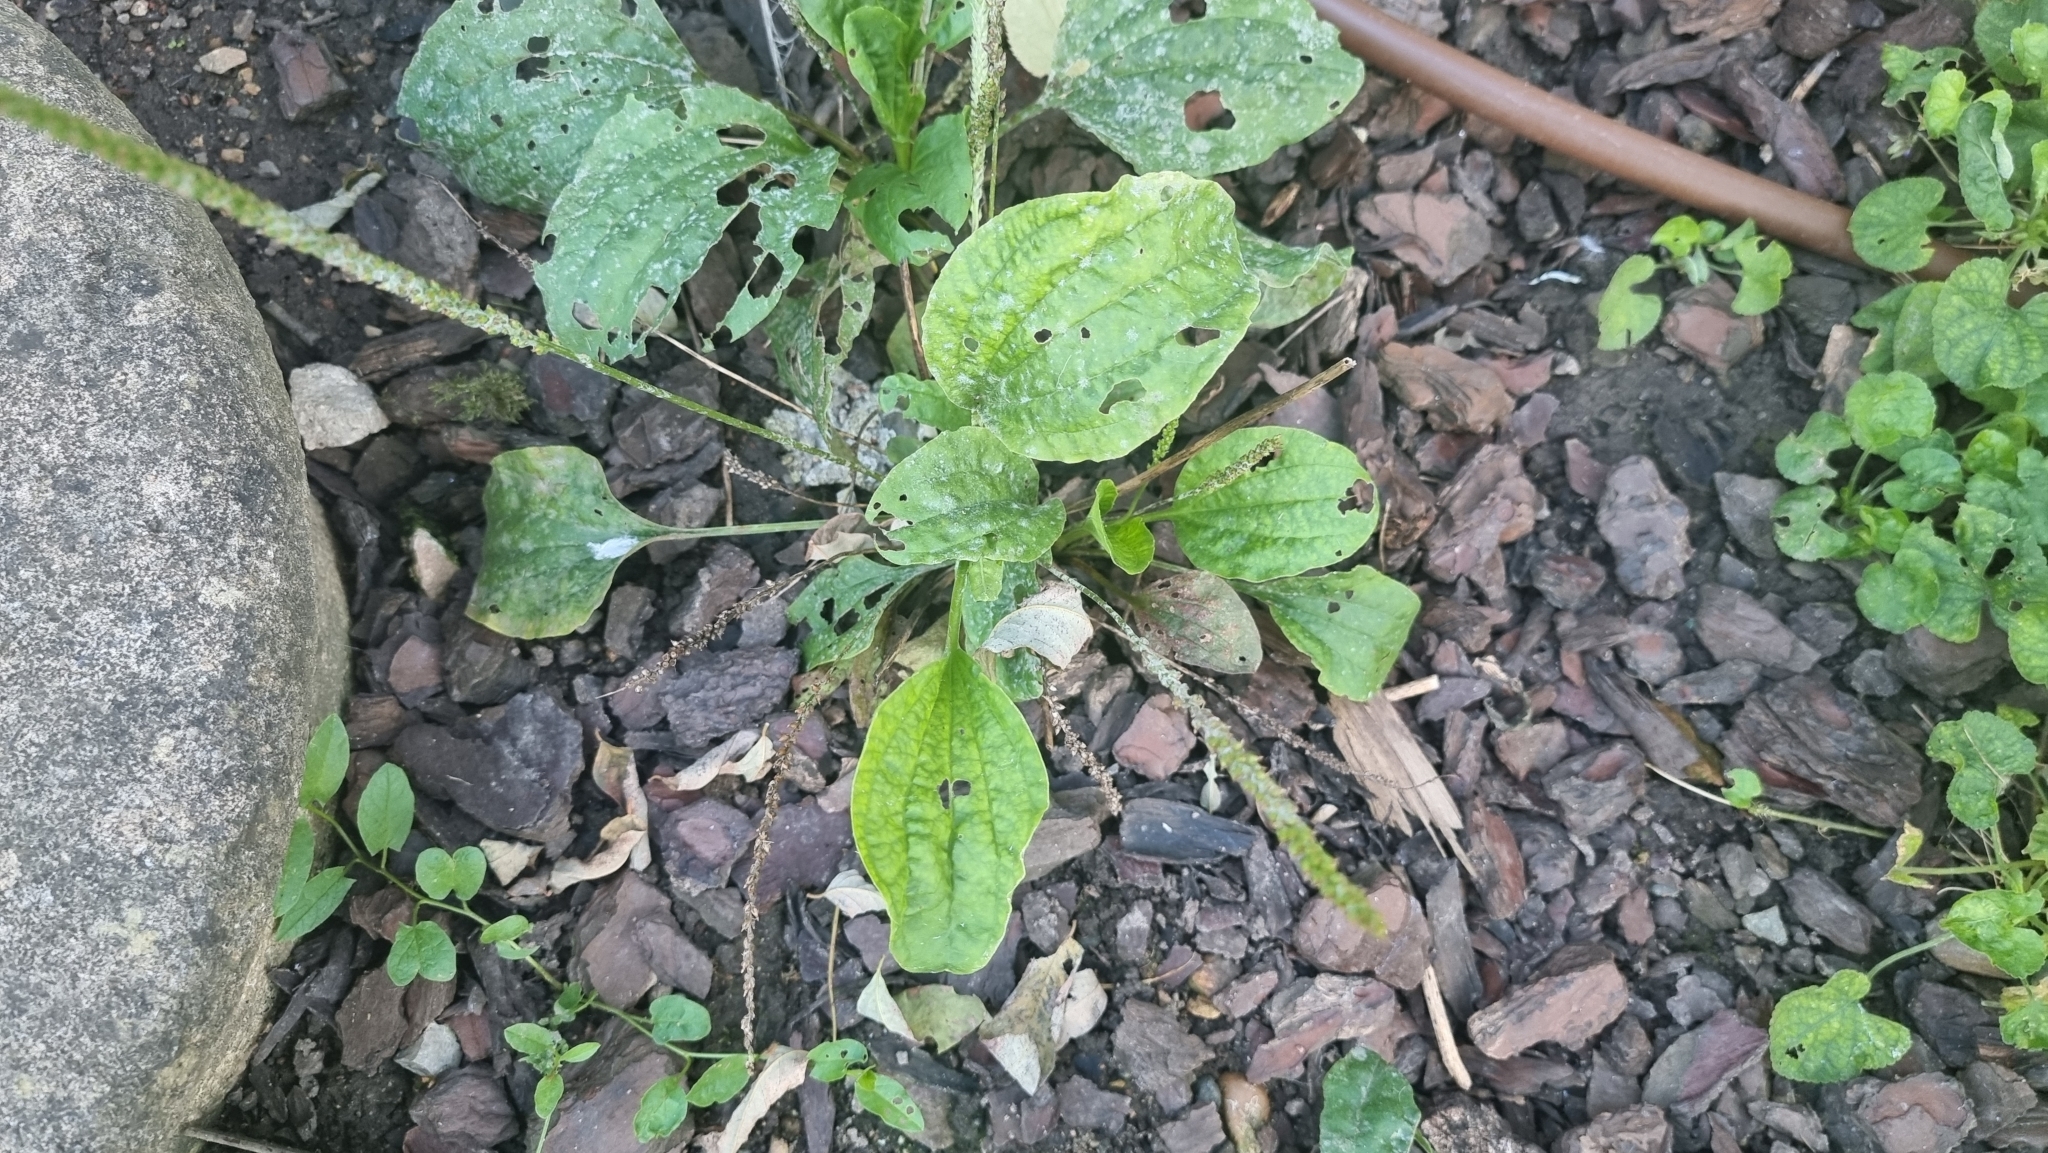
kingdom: Plantae
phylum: Tracheophyta
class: Magnoliopsida
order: Lamiales
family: Plantaginaceae
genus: Plantago
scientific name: Plantago major
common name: Common plantain
